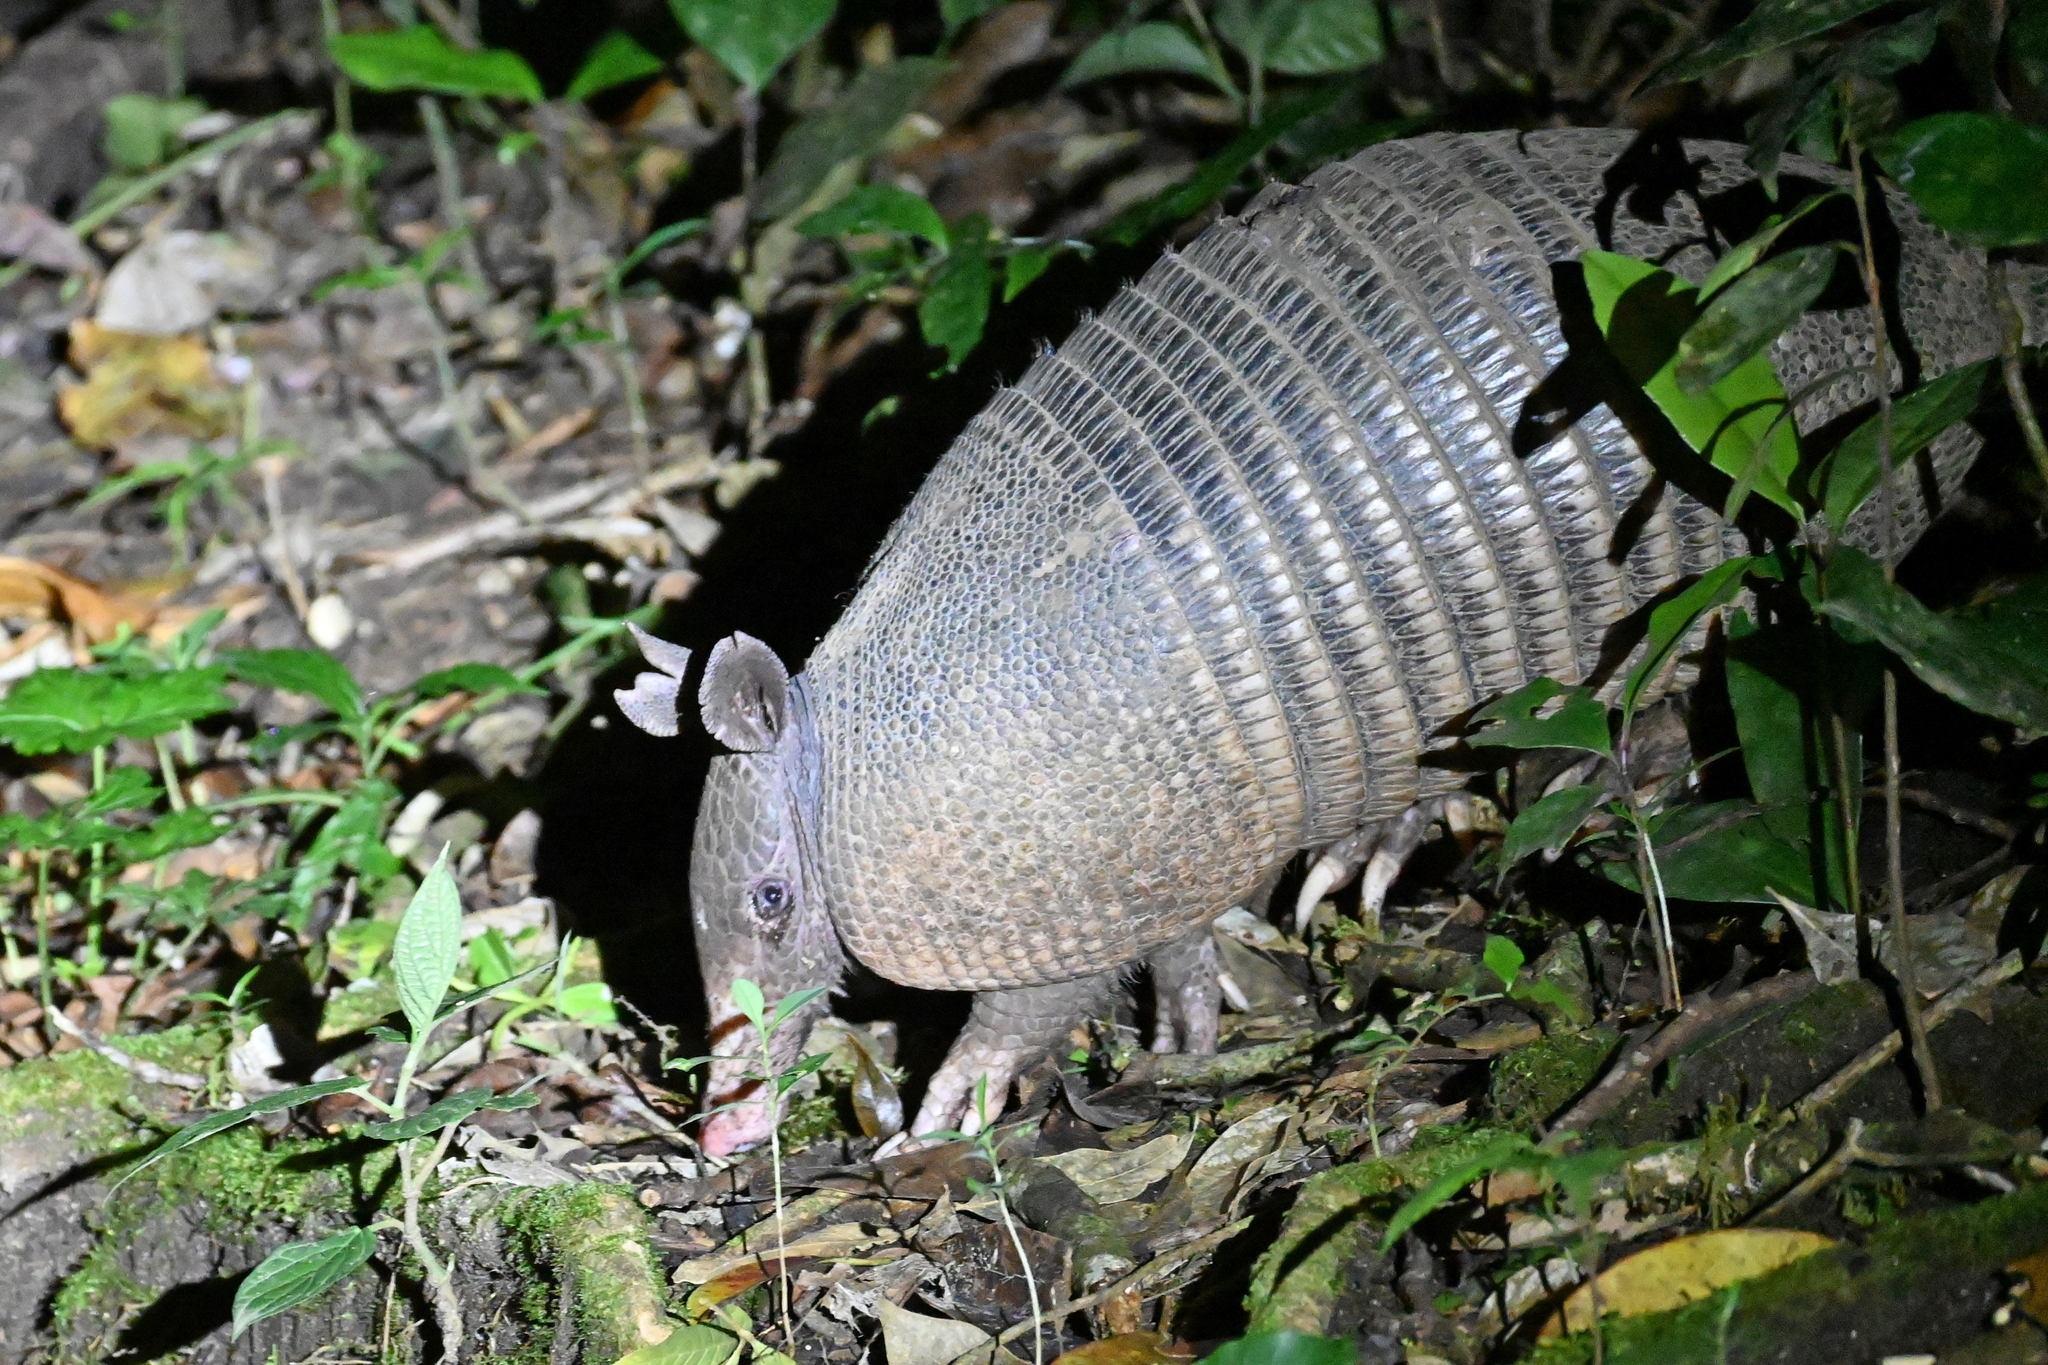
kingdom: Animalia
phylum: Chordata
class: Mammalia
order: Cingulata
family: Dasypodidae
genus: Dasypus
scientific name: Dasypus novemcinctus
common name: Nine-banded armadillo
